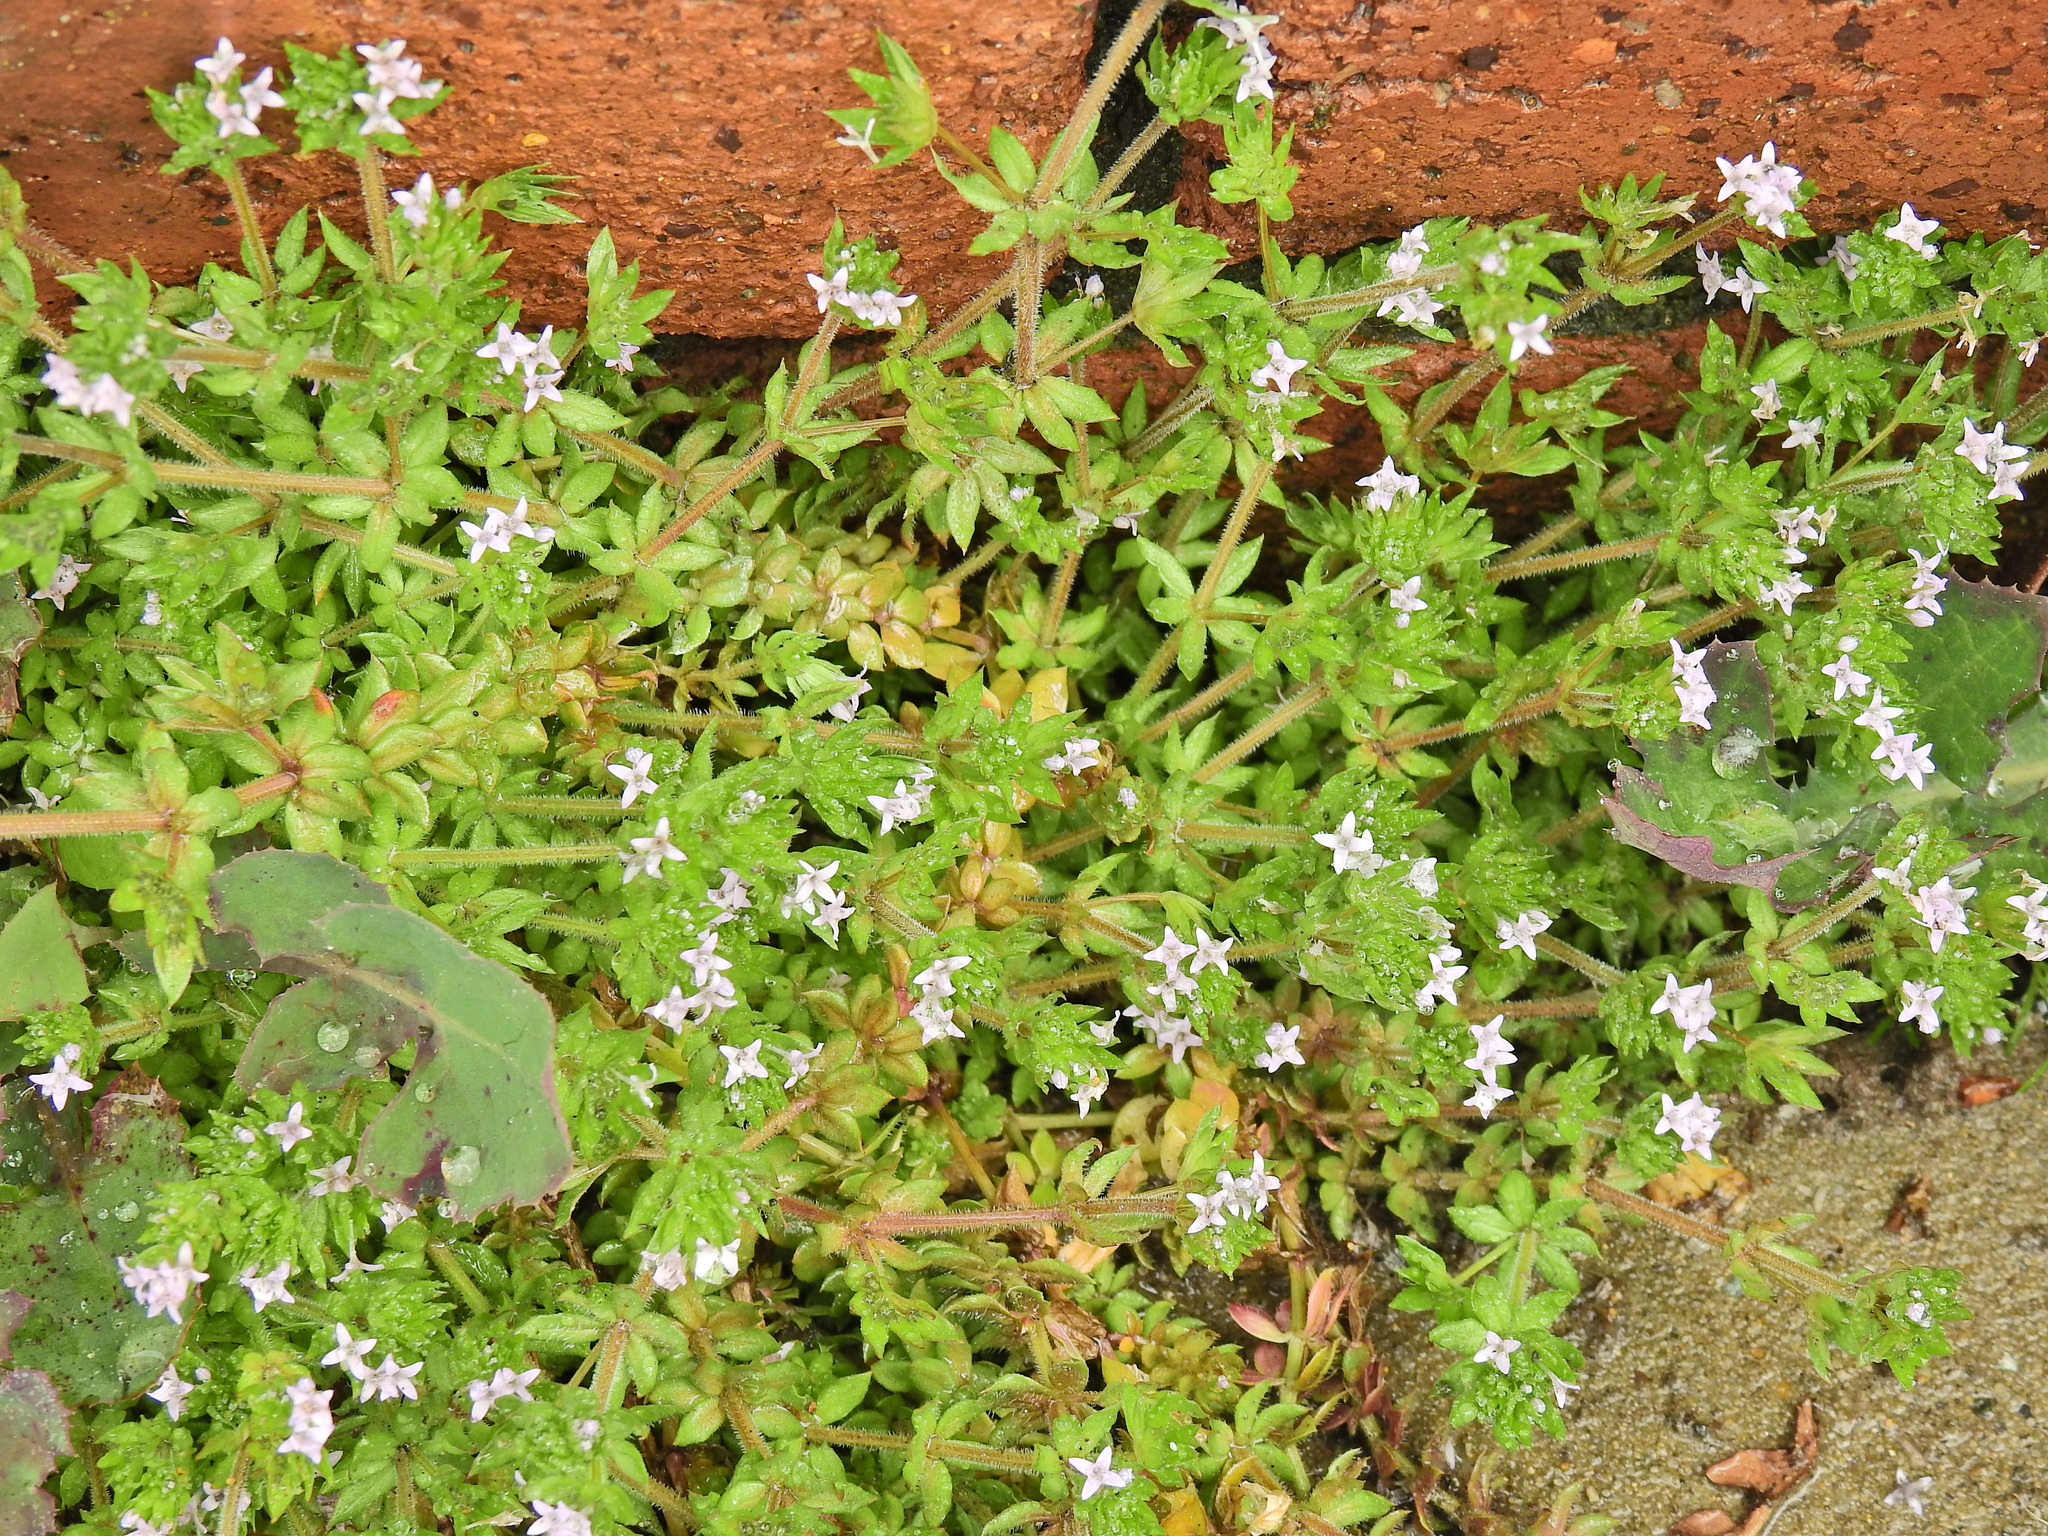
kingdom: Plantae
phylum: Tracheophyta
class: Magnoliopsida
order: Gentianales
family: Rubiaceae
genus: Sherardia
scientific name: Sherardia arvensis
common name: Field madder
